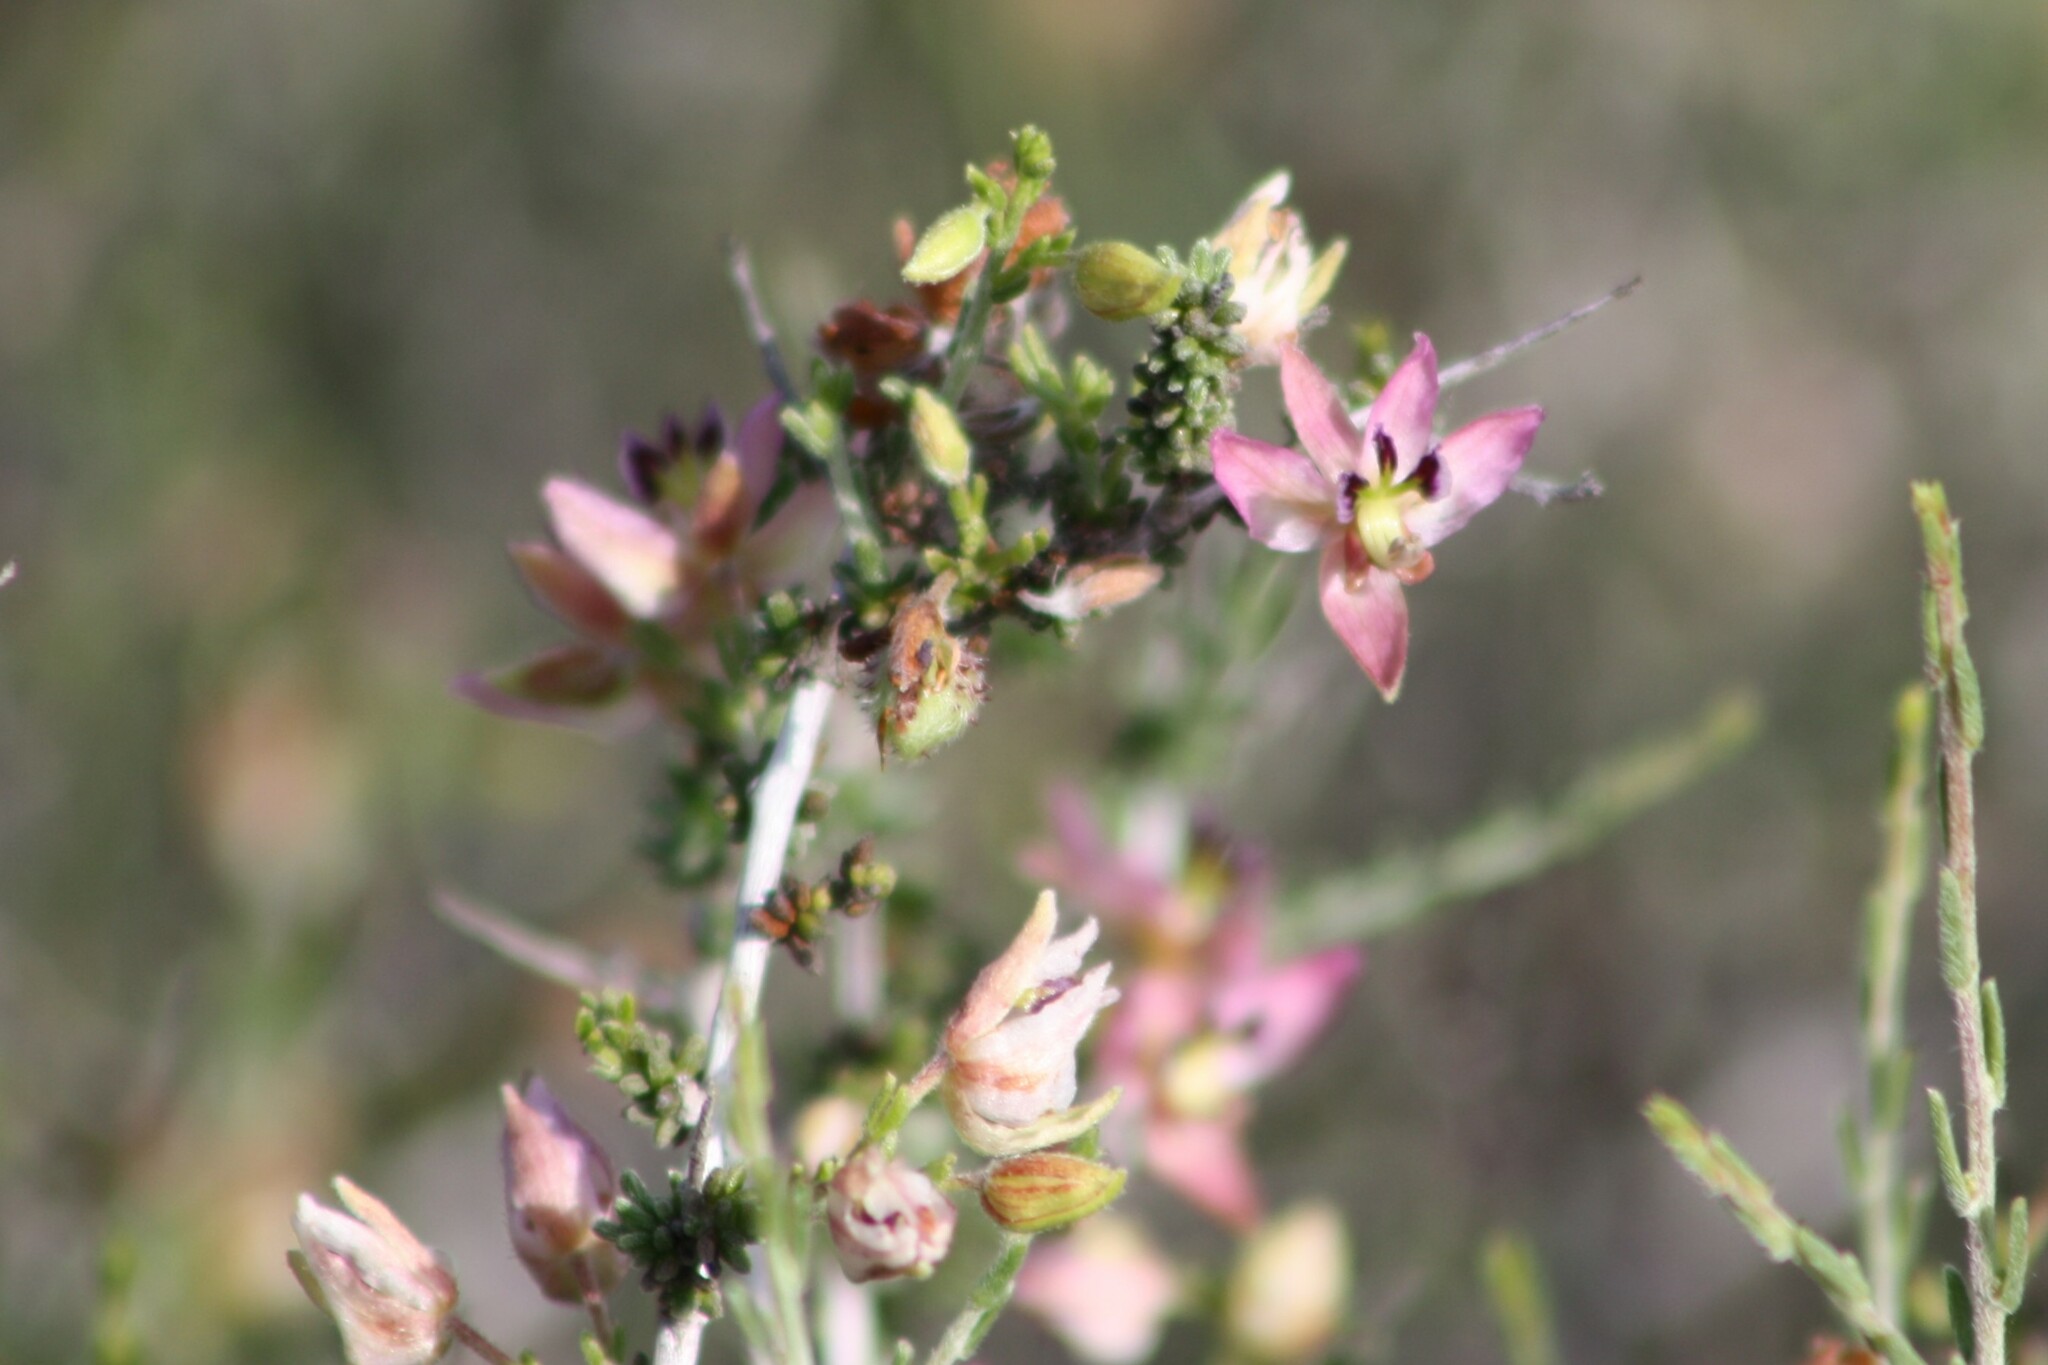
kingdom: Plantae
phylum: Tracheophyta
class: Magnoliopsida
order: Zygophyllales
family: Krameriaceae
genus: Krameria
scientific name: Krameria ramosissima
